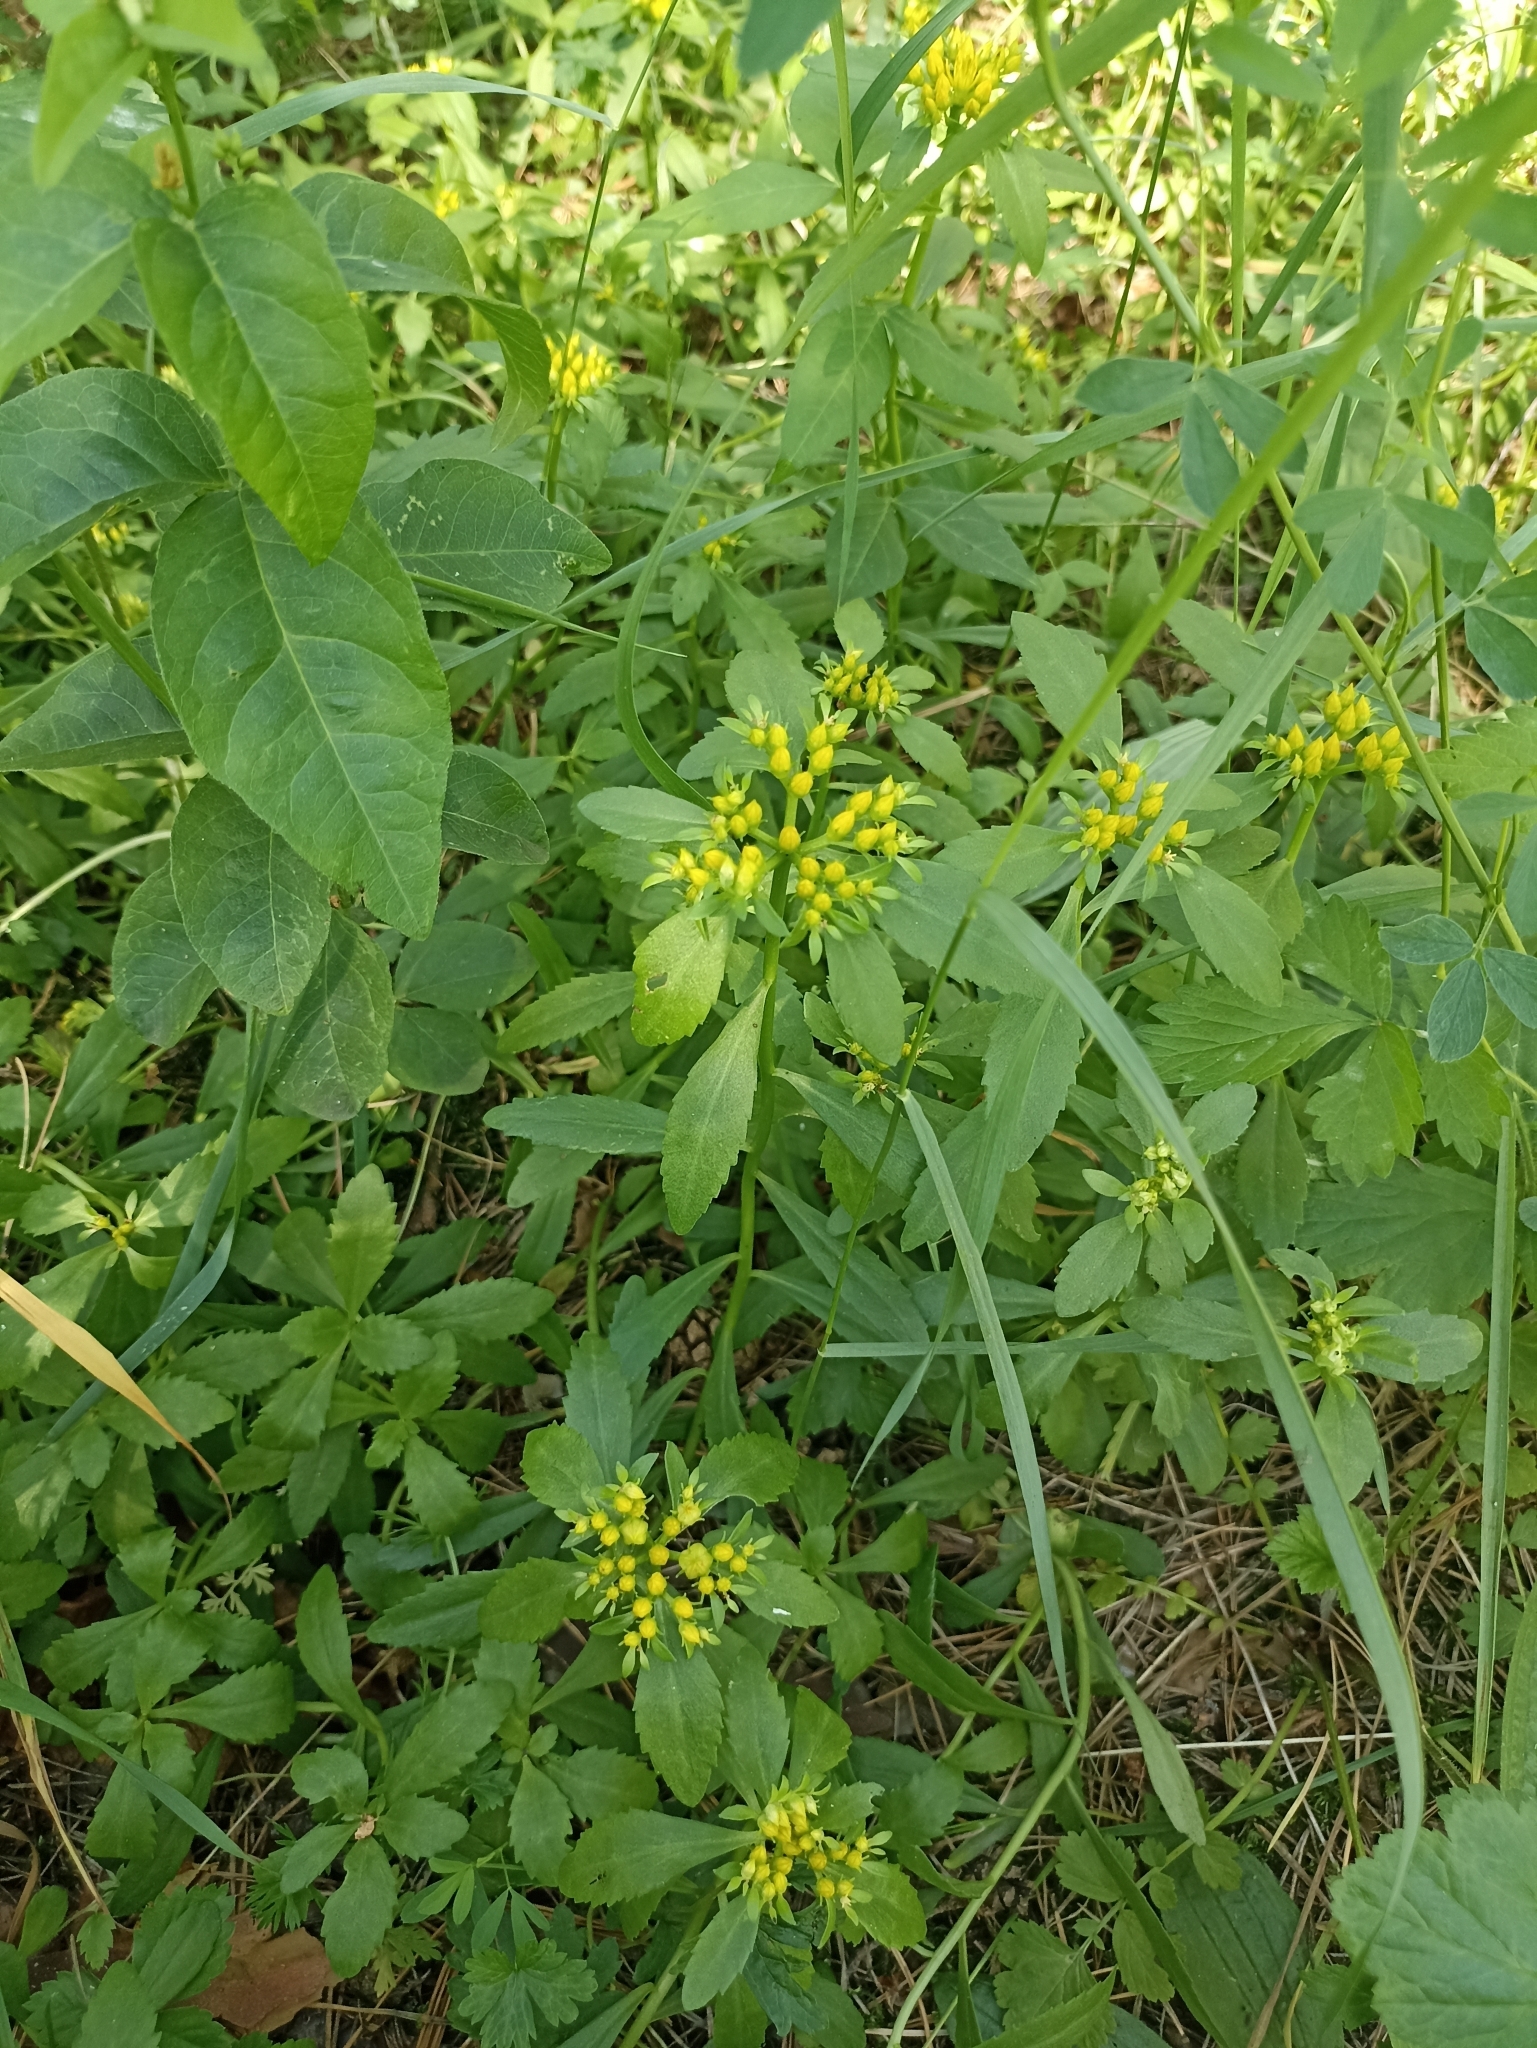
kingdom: Plantae
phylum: Tracheophyta
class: Magnoliopsida
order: Saxifragales
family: Crassulaceae
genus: Phedimus
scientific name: Phedimus aizoon
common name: Orpin aizoon
